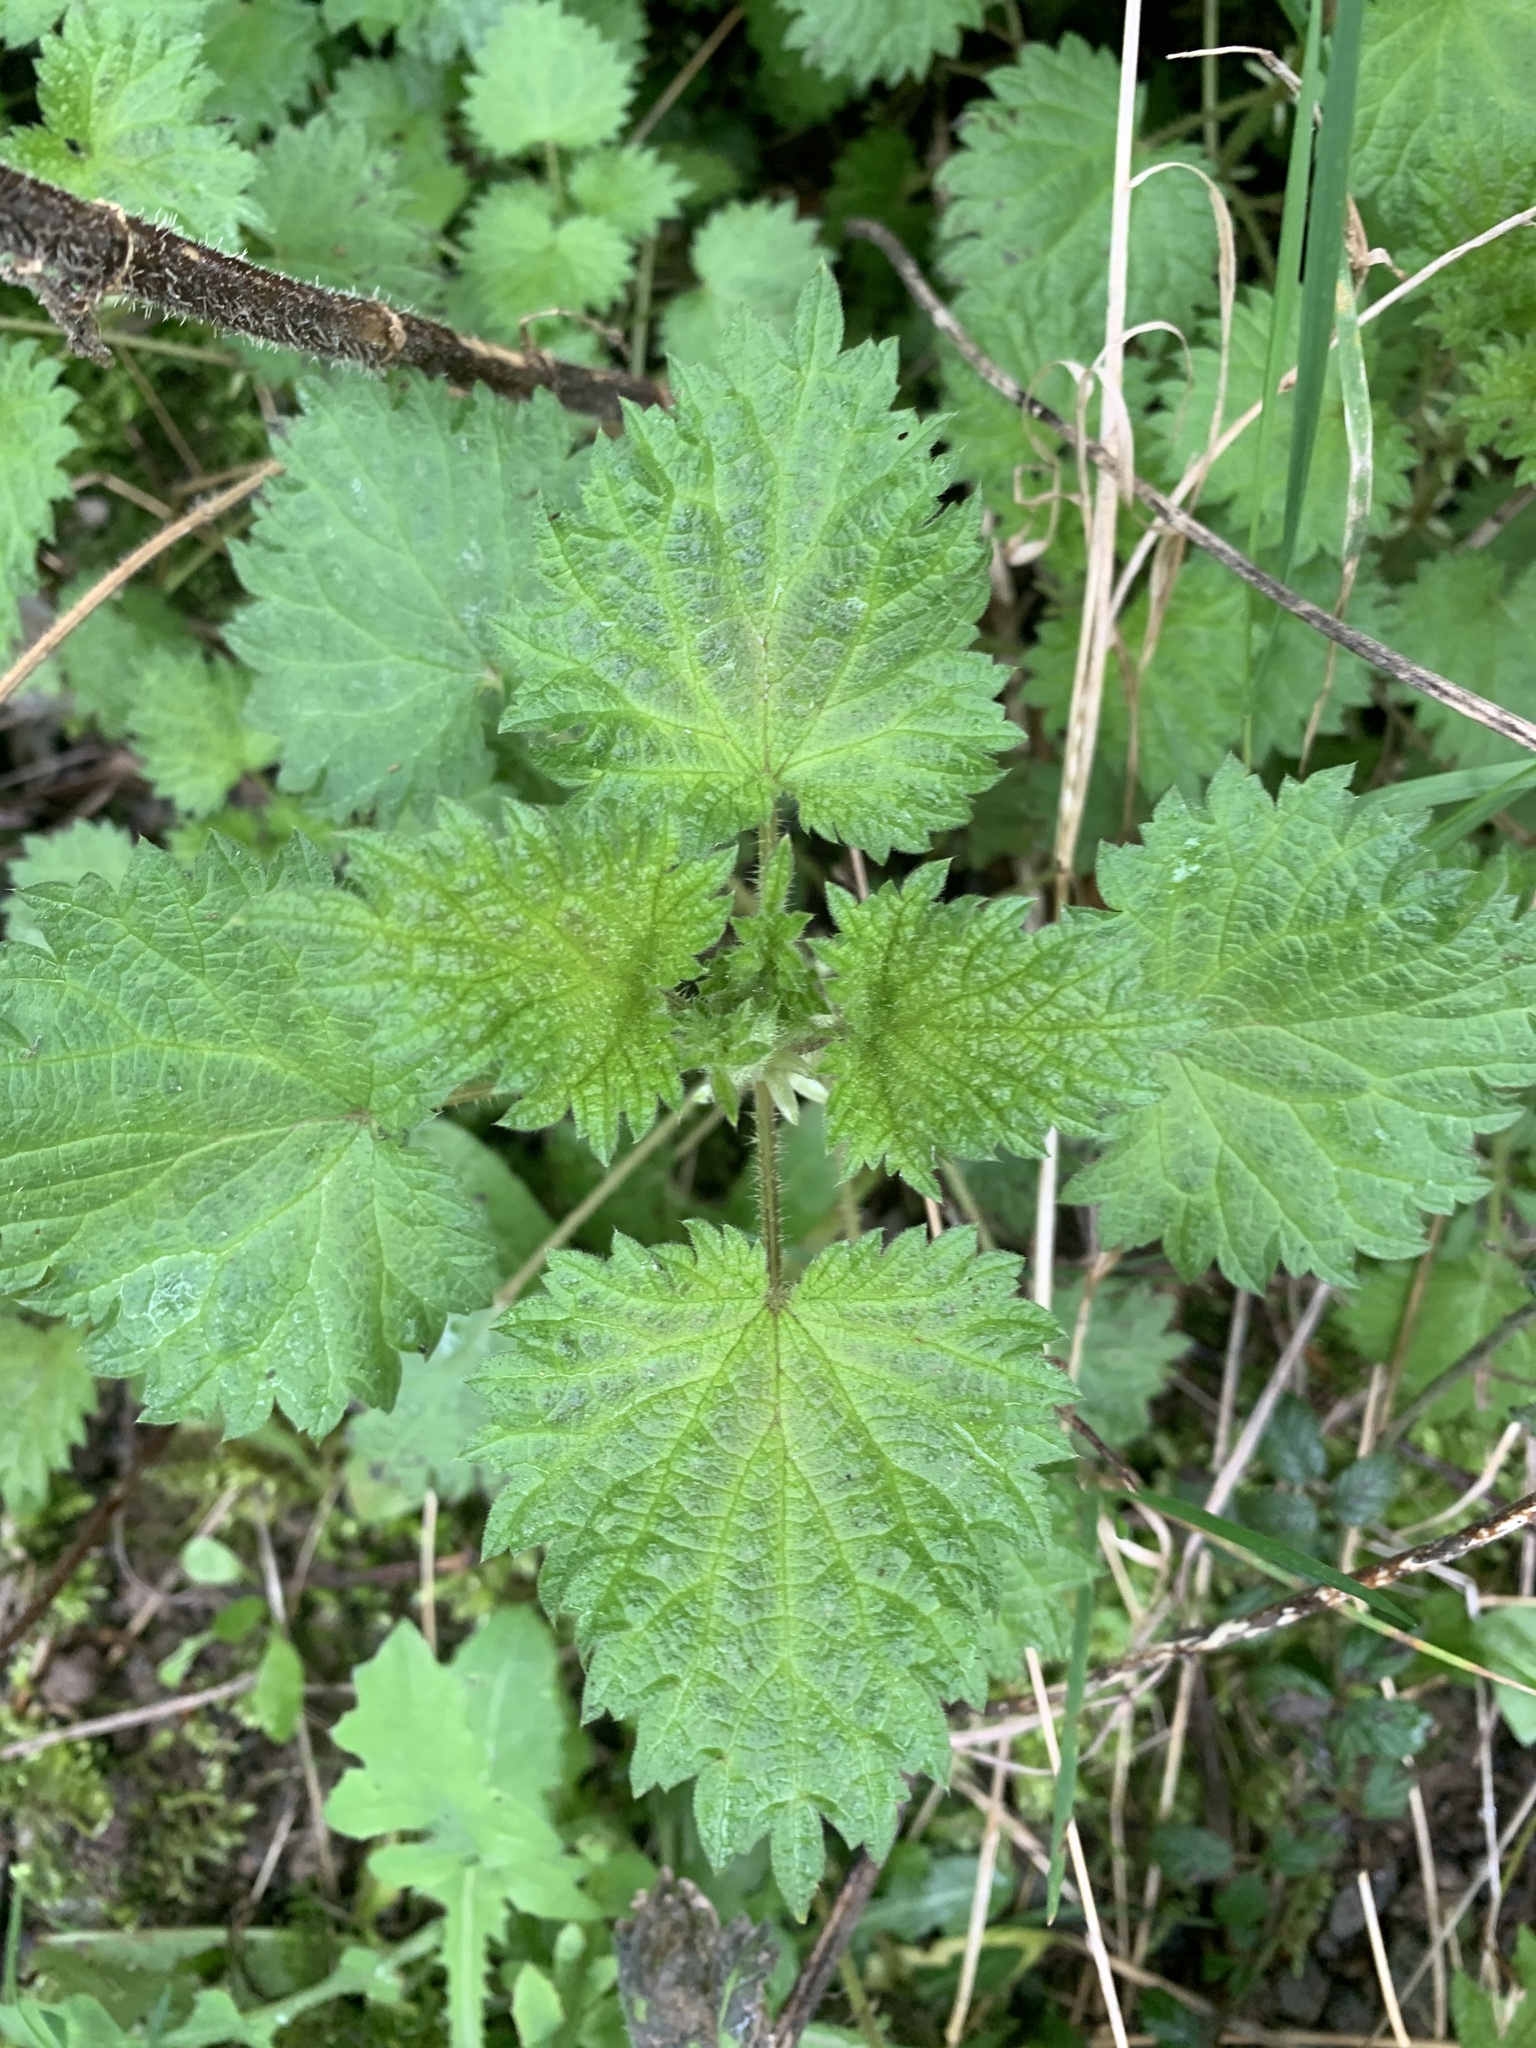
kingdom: Plantae
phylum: Tracheophyta
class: Magnoliopsida
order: Rosales
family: Urticaceae
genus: Urtica
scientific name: Urtica dioica
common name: Common nettle
